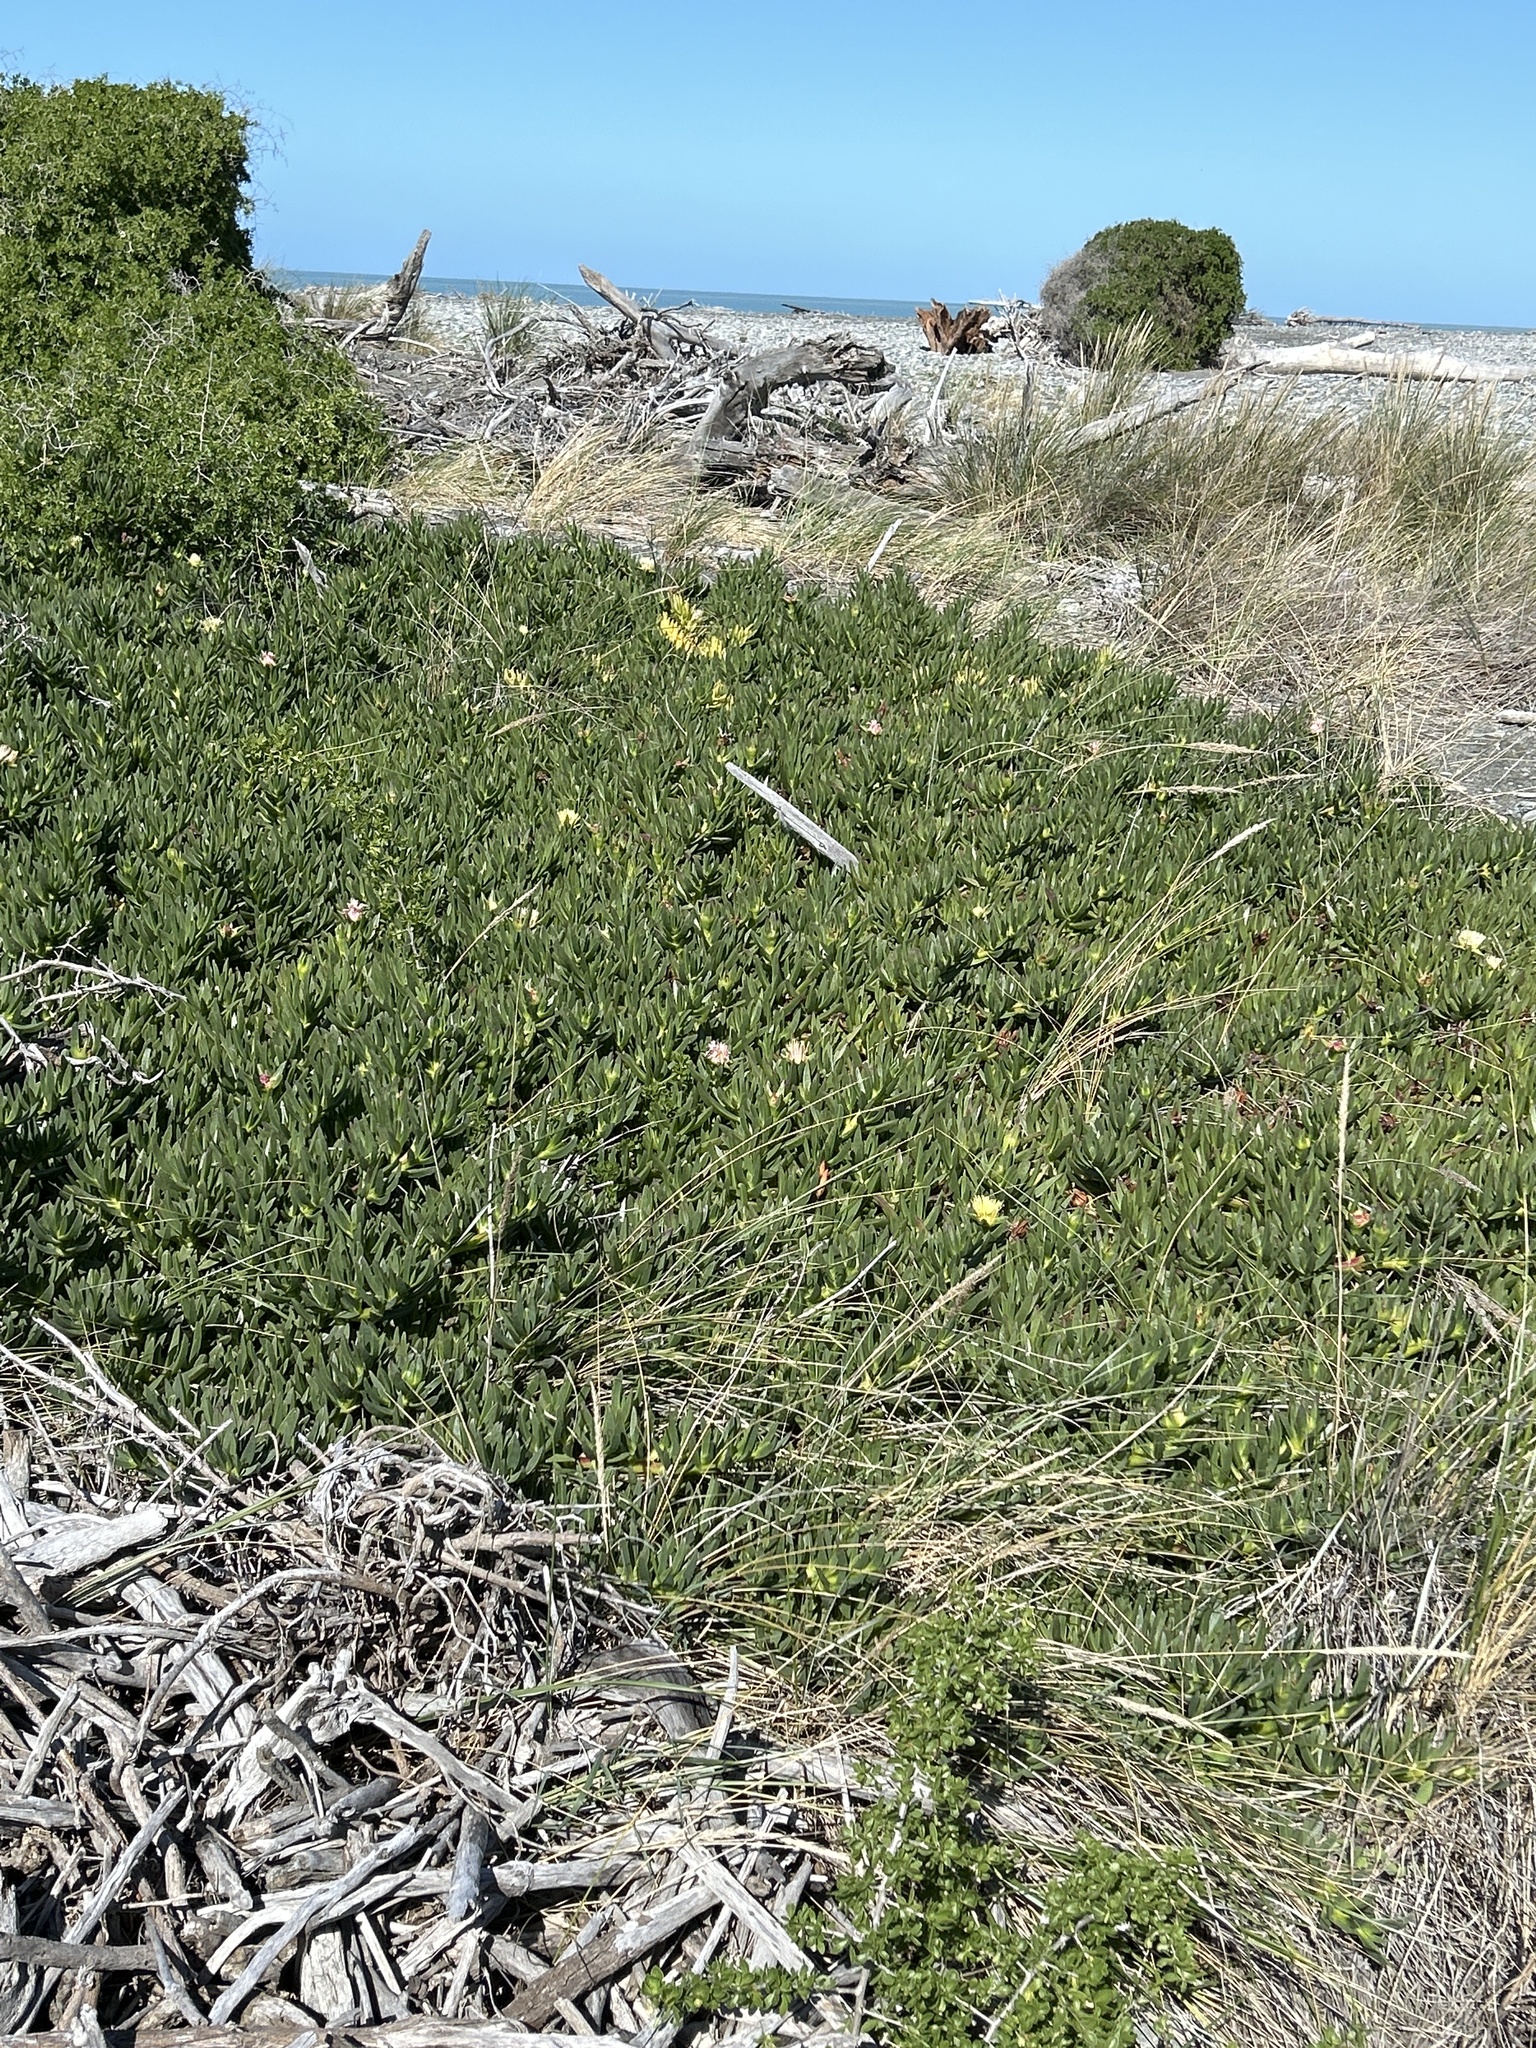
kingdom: Plantae
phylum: Tracheophyta
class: Magnoliopsida
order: Caryophyllales
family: Aizoaceae
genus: Carpobrotus
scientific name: Carpobrotus edulis
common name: Hottentot-fig
